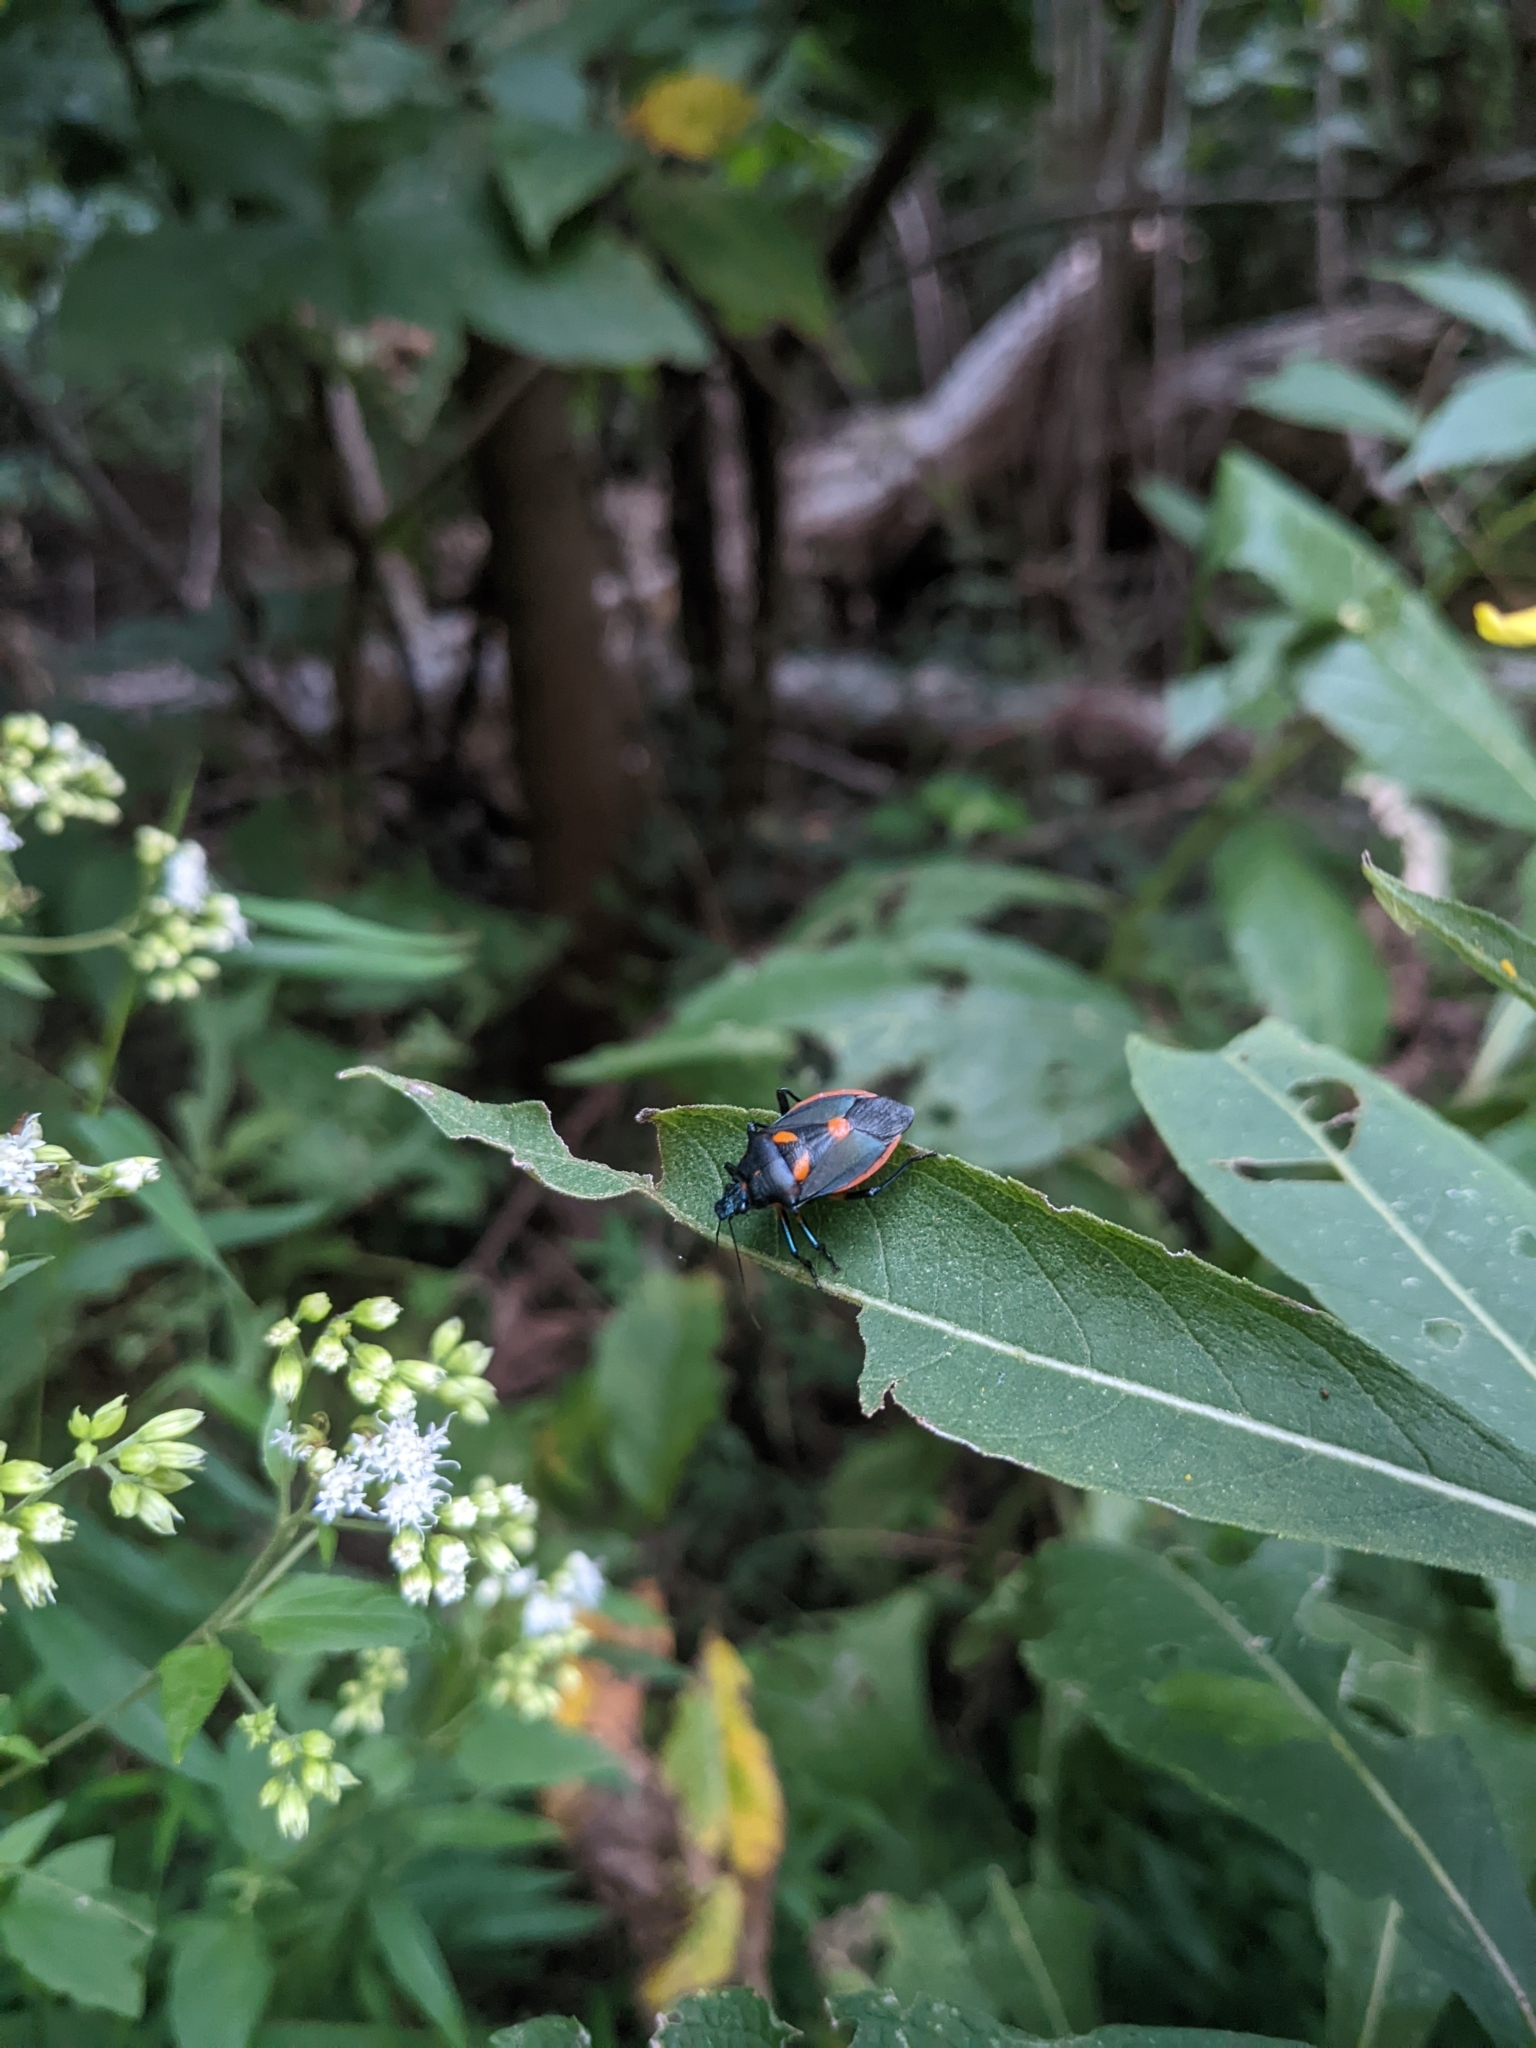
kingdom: Animalia
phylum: Arthropoda
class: Insecta
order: Hemiptera
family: Pentatomidae
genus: Euthyrhynchus
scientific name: Euthyrhynchus floridanus
